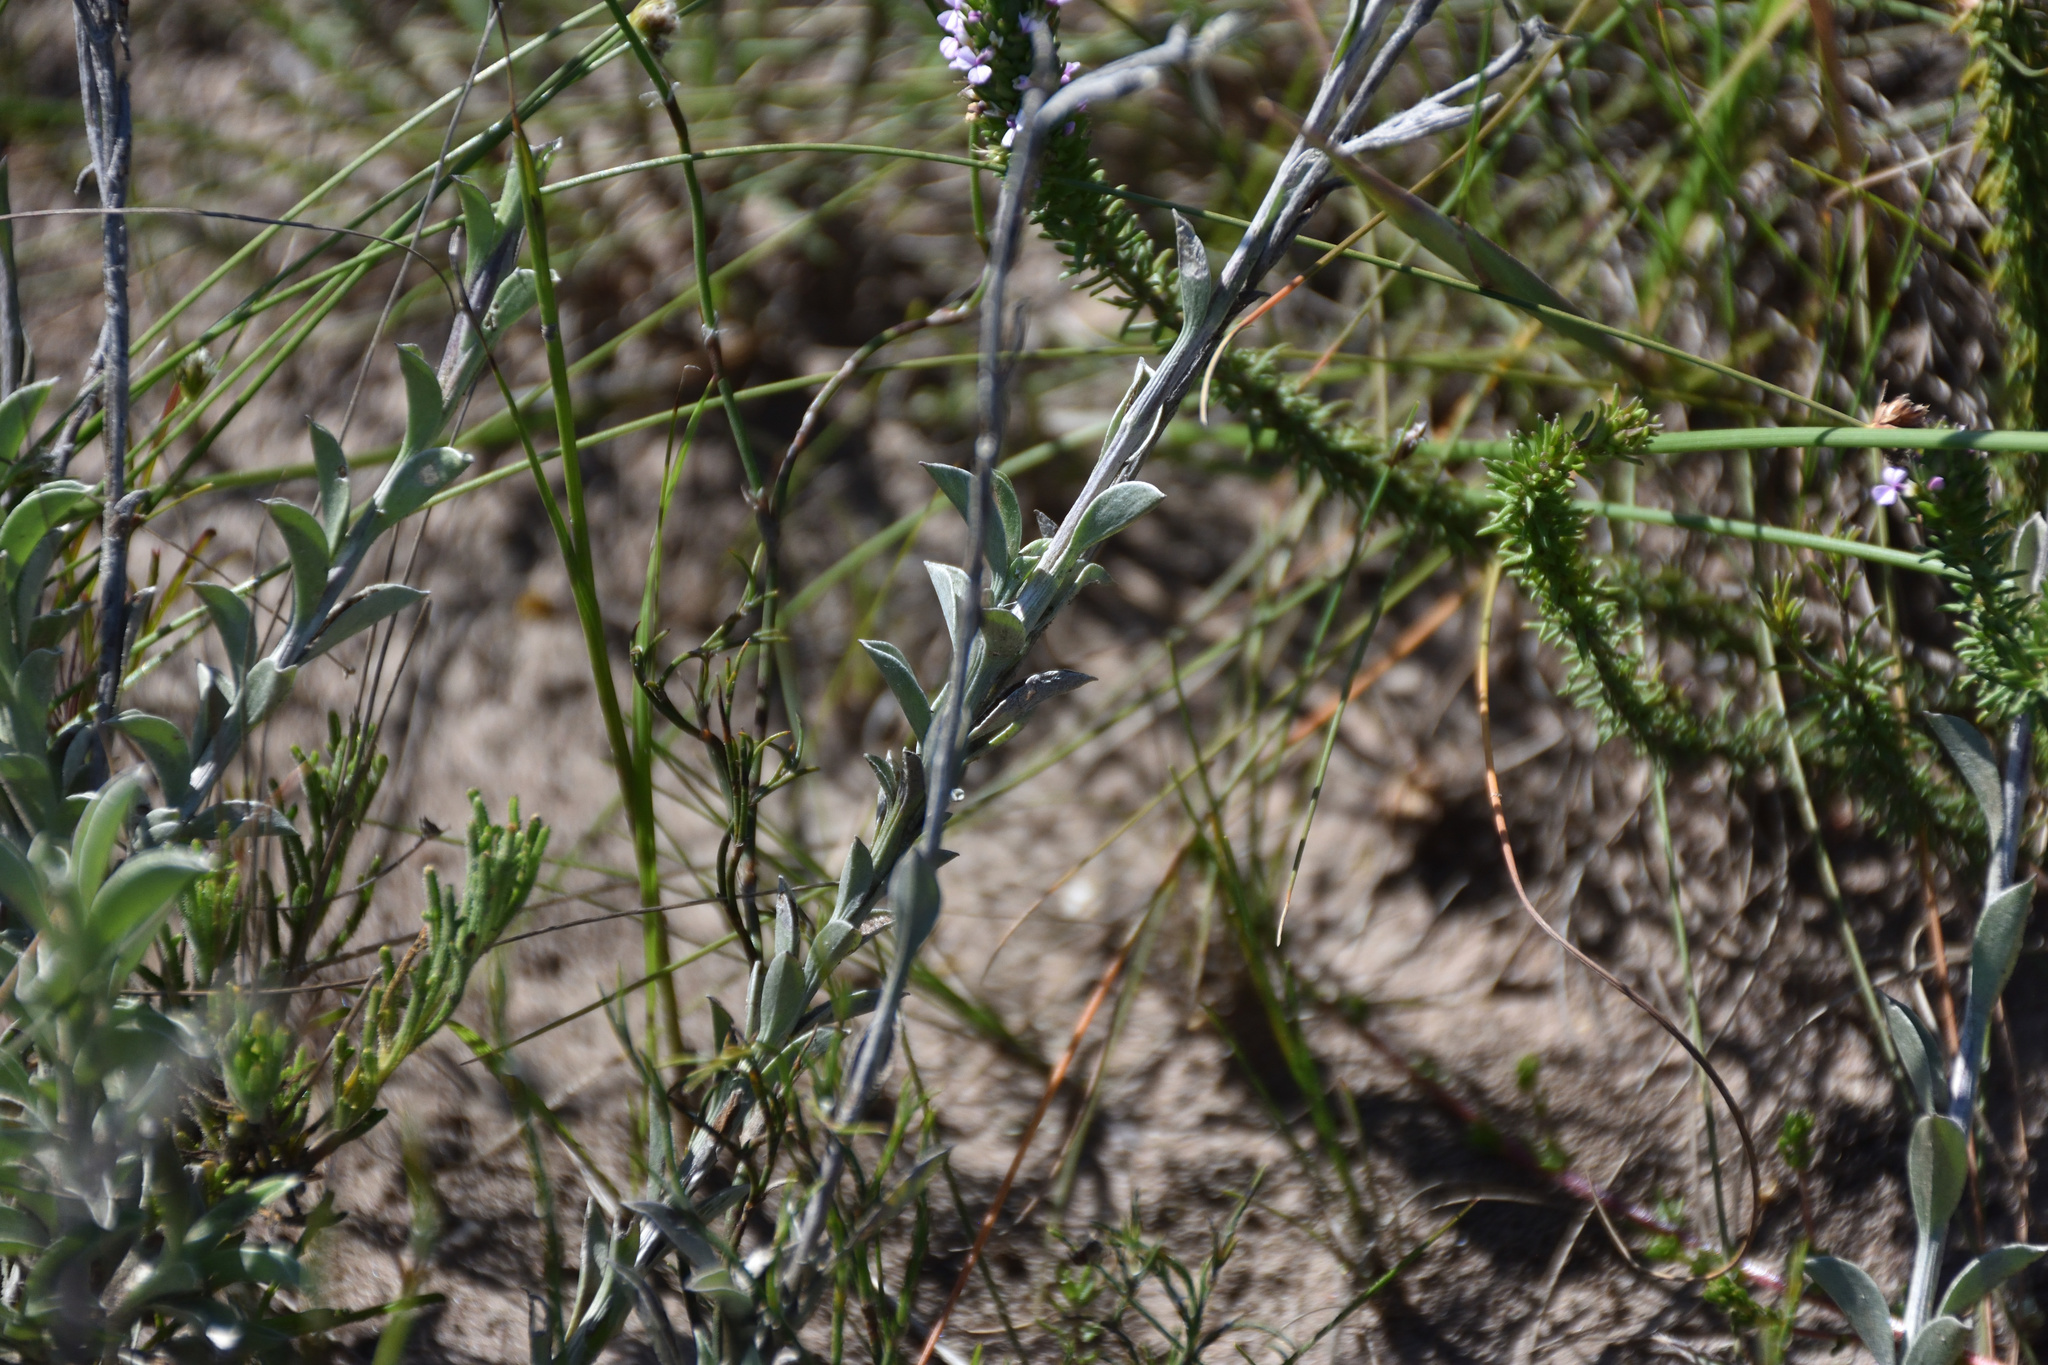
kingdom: Plantae
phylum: Tracheophyta
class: Magnoliopsida
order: Asterales
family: Asteraceae
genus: Achyranthemum
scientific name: Achyranthemum affine
